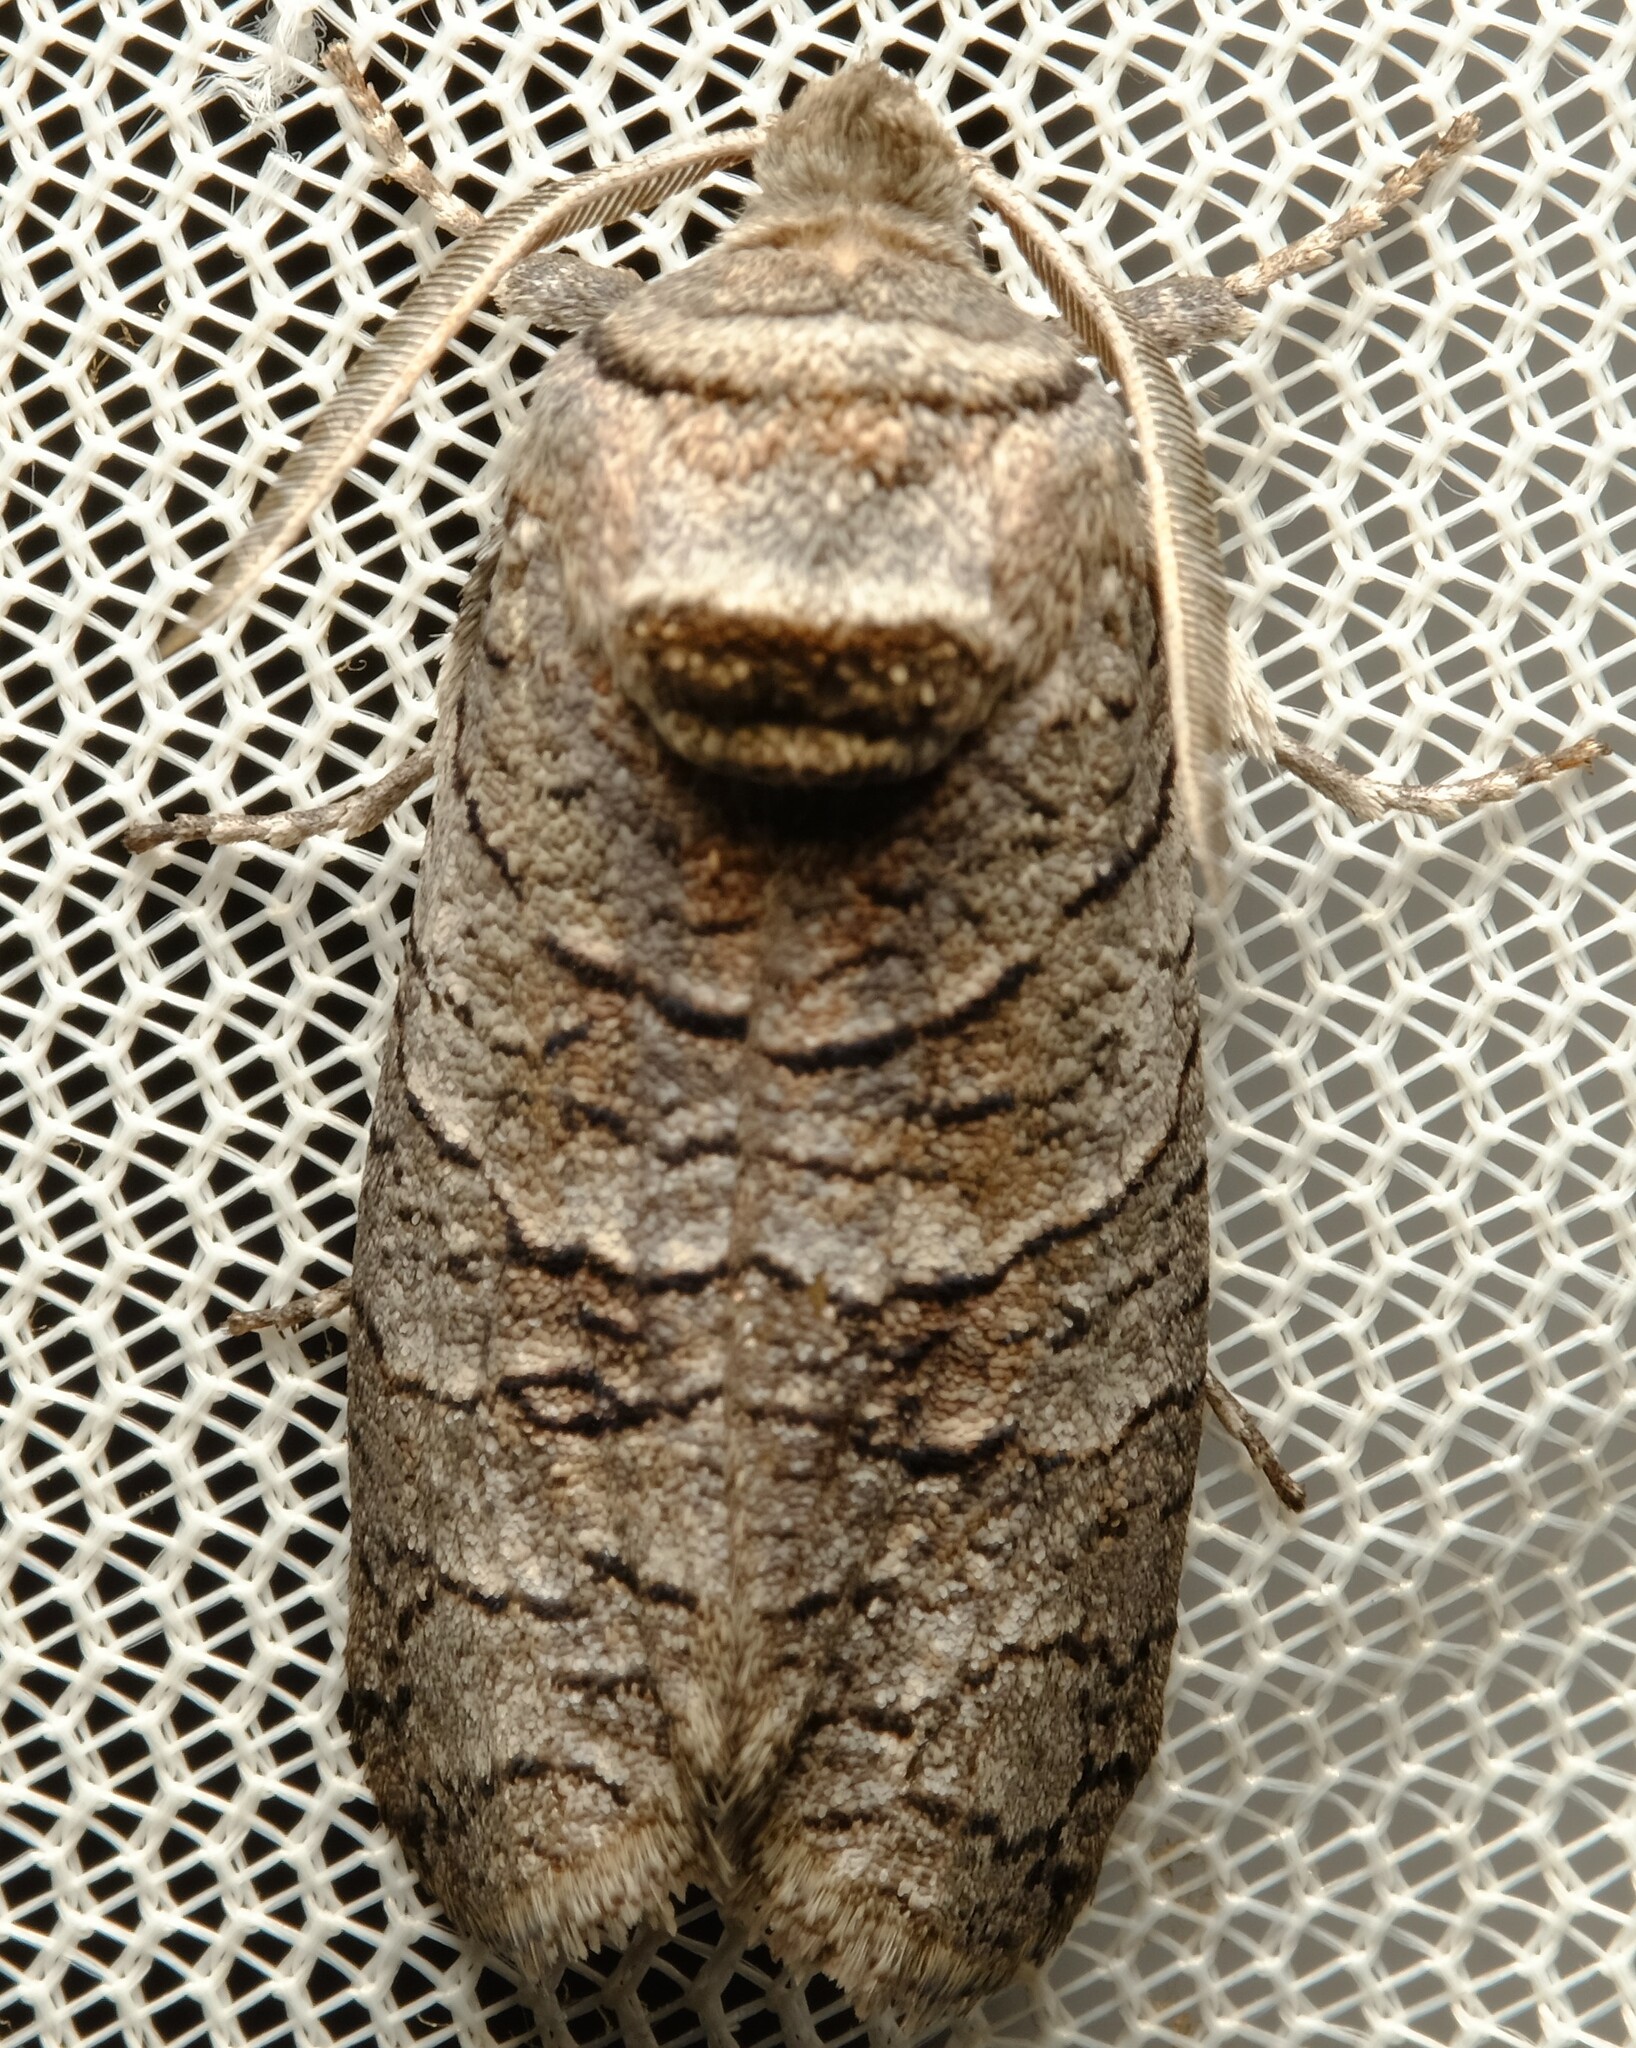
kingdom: Animalia
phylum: Arthropoda
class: Insecta
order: Lepidoptera
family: Cossidae
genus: Culama
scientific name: Culama suffusca
